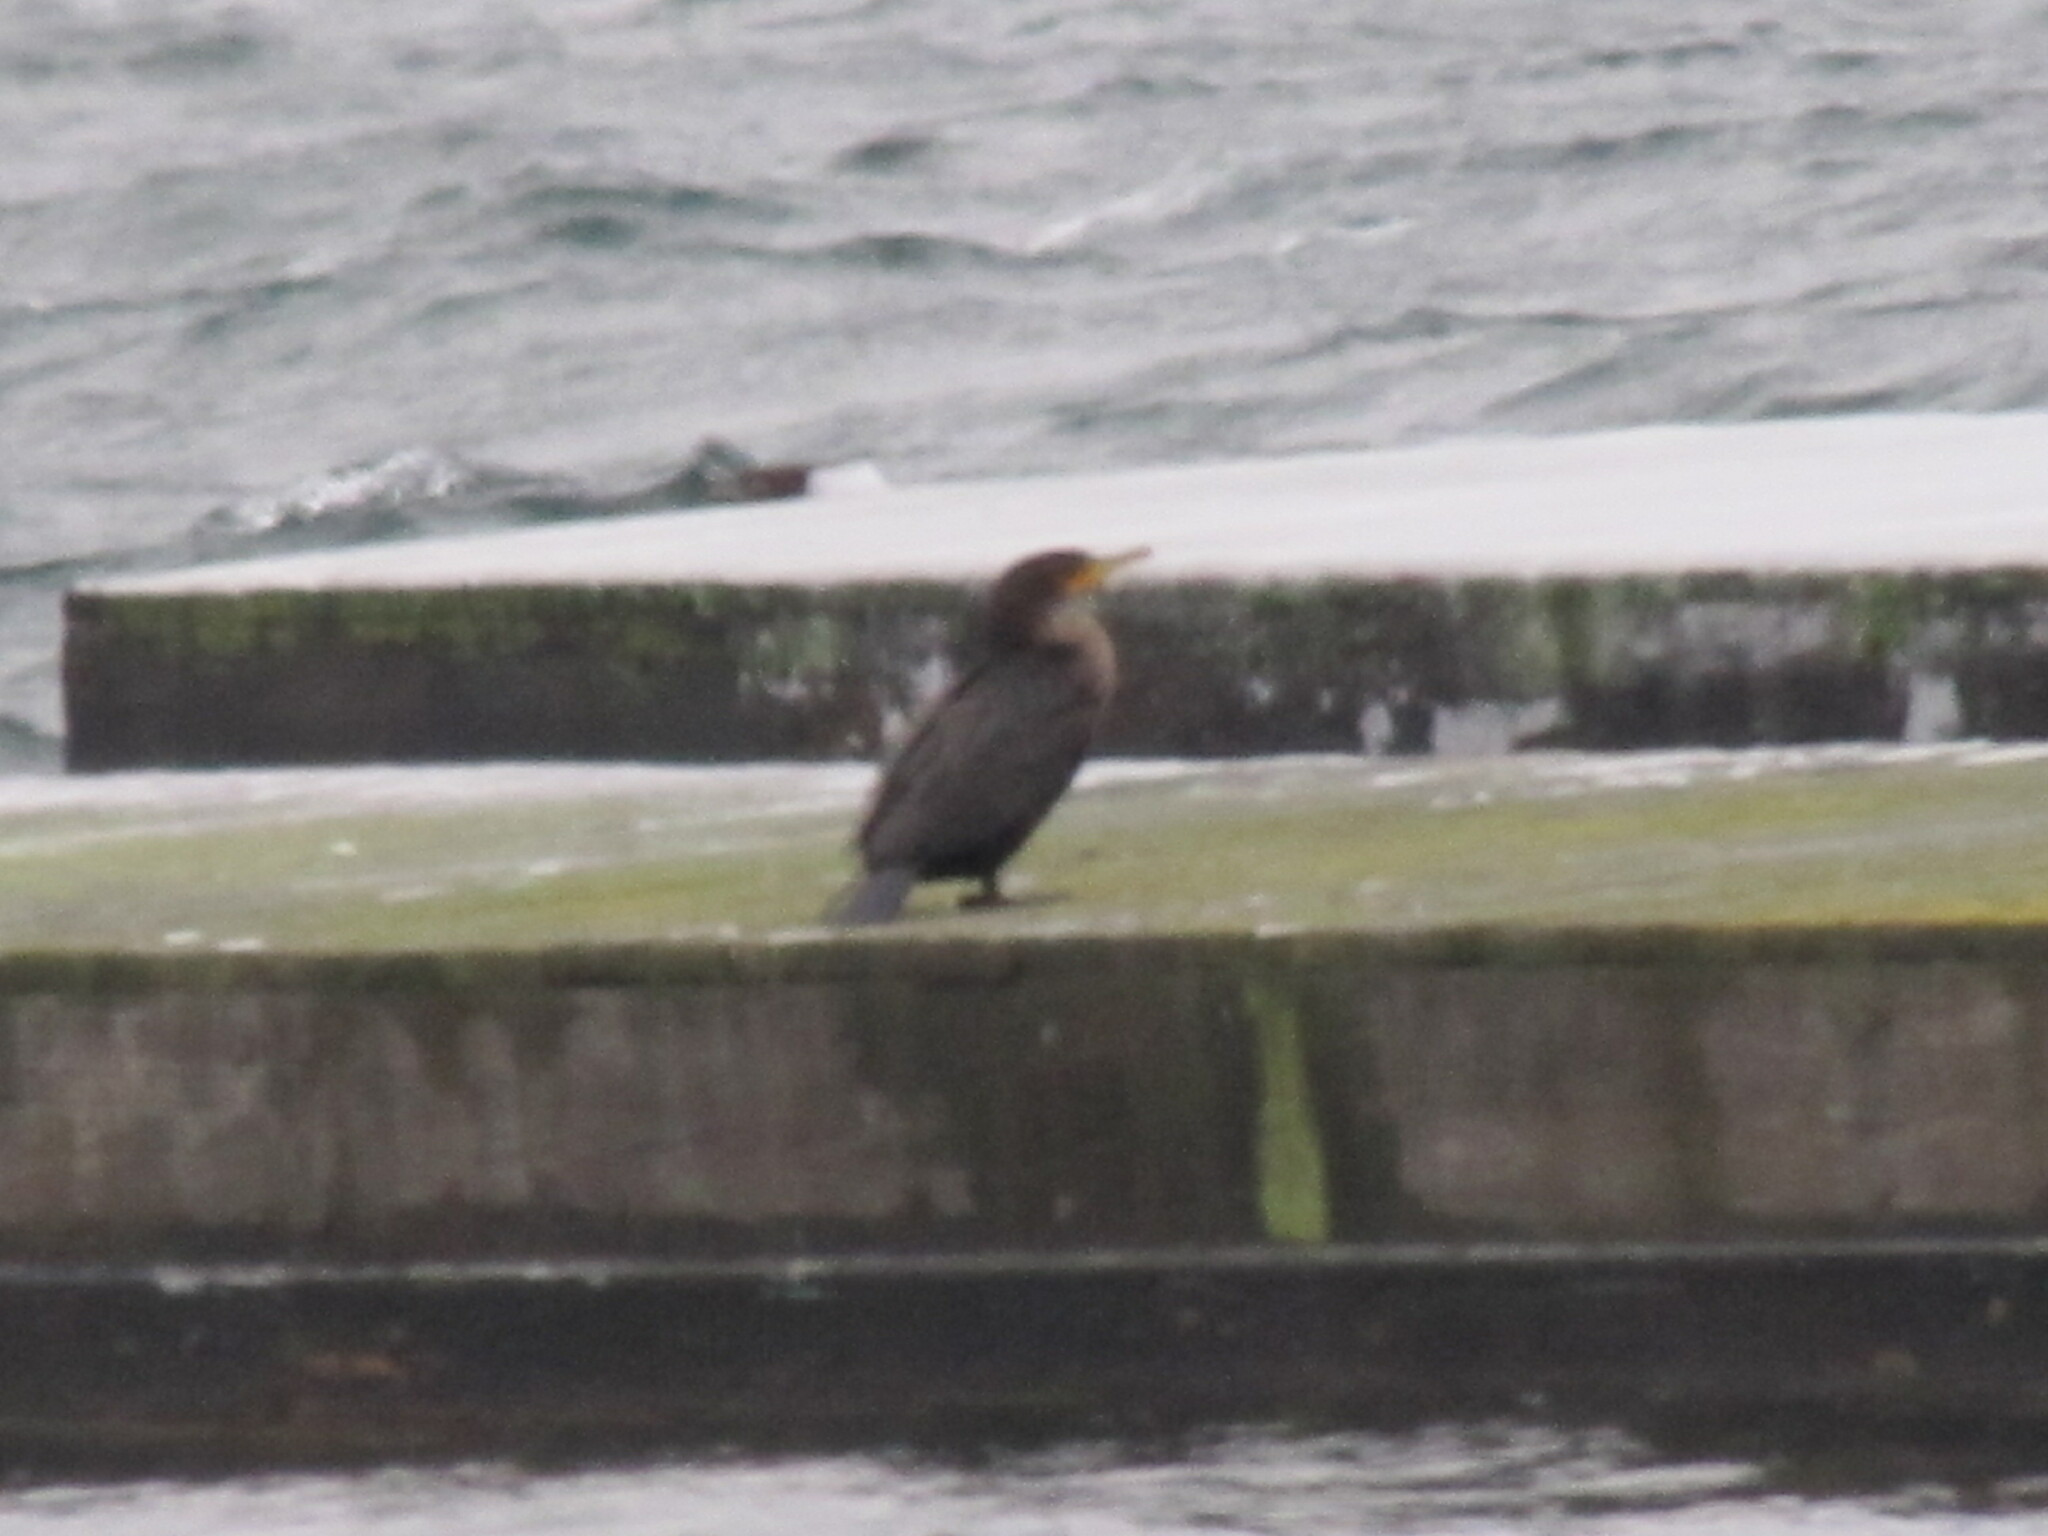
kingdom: Animalia
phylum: Chordata
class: Aves
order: Suliformes
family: Phalacrocoracidae
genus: Phalacrocorax
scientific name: Phalacrocorax auritus
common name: Double-crested cormorant
